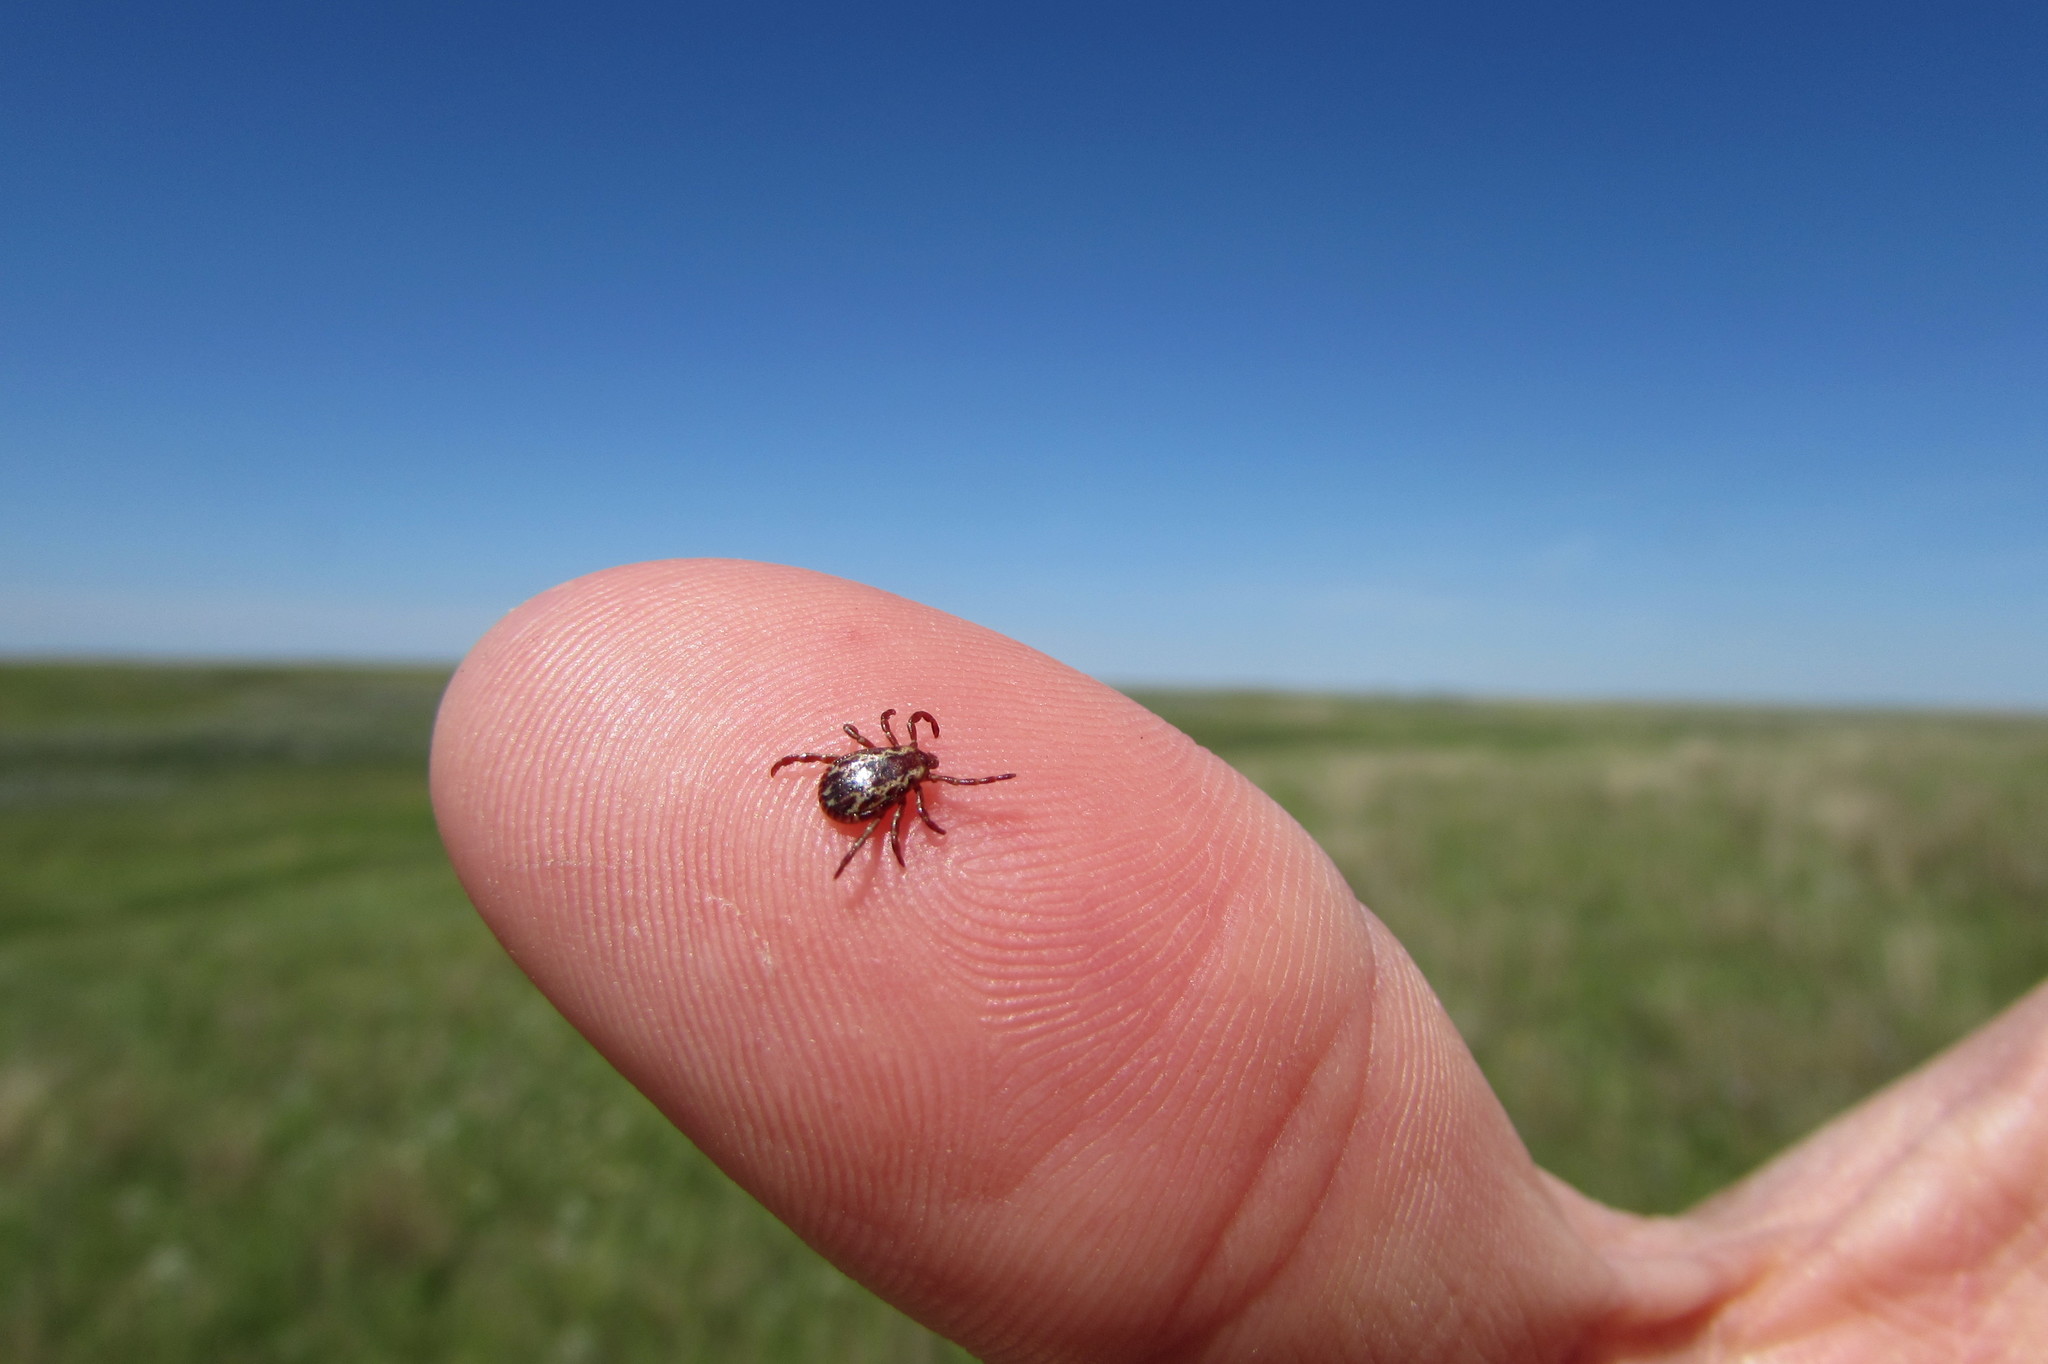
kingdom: Animalia
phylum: Arthropoda
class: Arachnida
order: Ixodida
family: Ixodidae
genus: Dermacentor
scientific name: Dermacentor variabilis
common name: American dog tick
